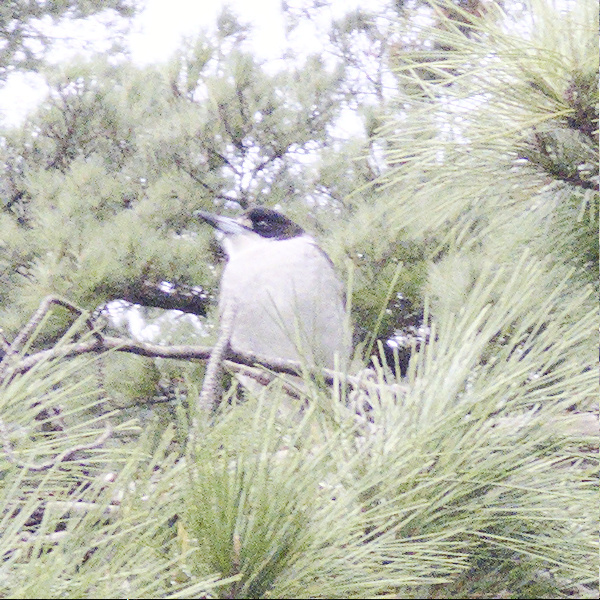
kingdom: Animalia
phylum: Chordata
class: Aves
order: Passeriformes
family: Cracticidae
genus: Cracticus
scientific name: Cracticus torquatus
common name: Grey butcherbird
